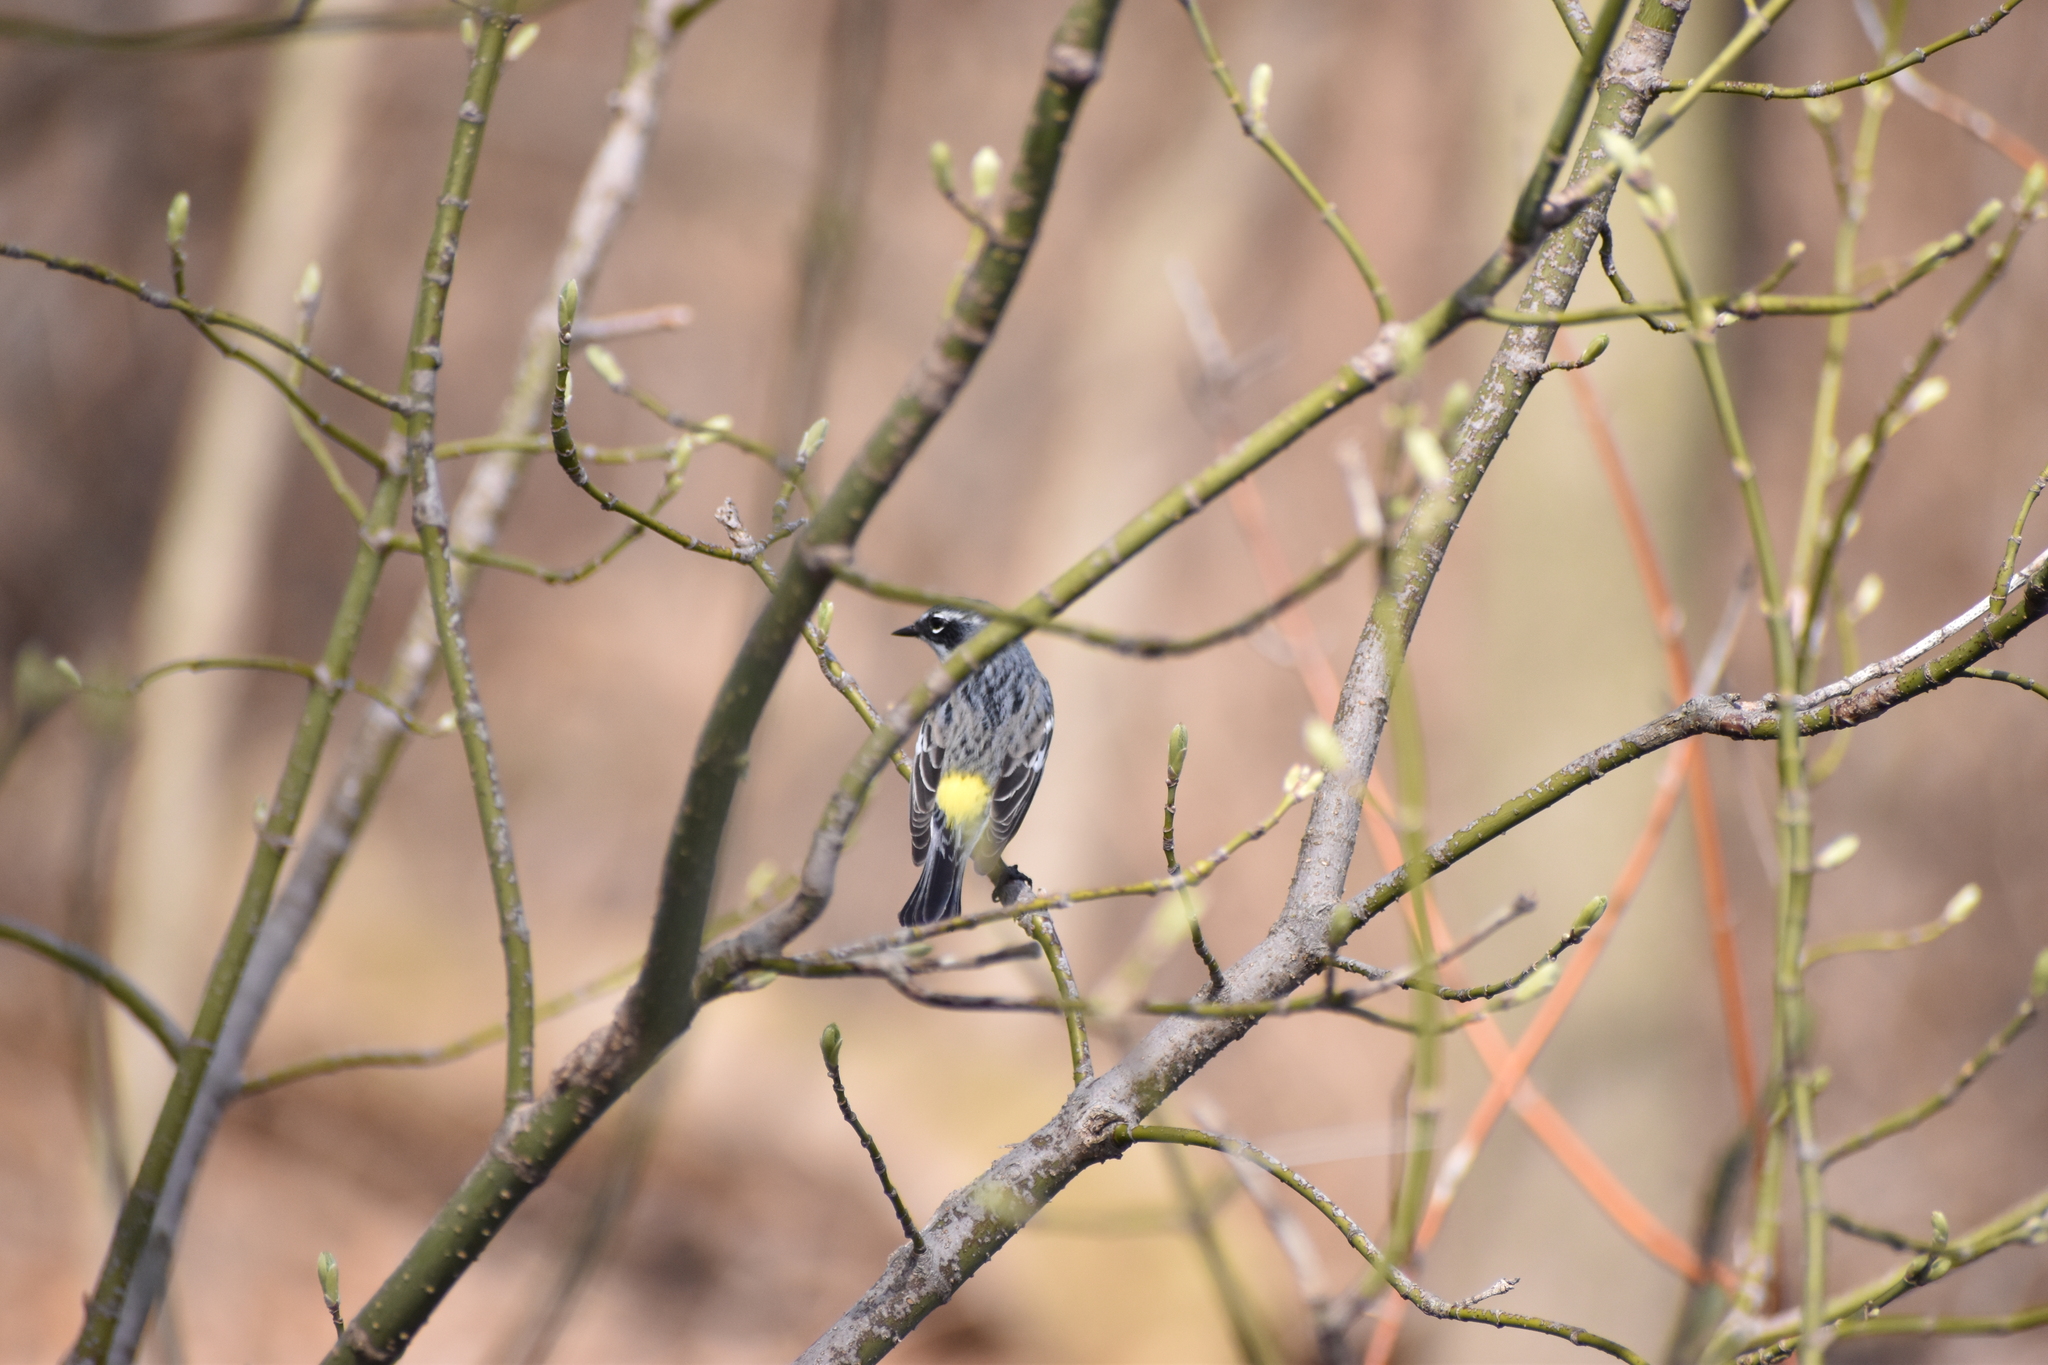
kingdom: Animalia
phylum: Chordata
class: Aves
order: Passeriformes
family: Parulidae
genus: Setophaga
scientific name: Setophaga coronata
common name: Myrtle warbler
